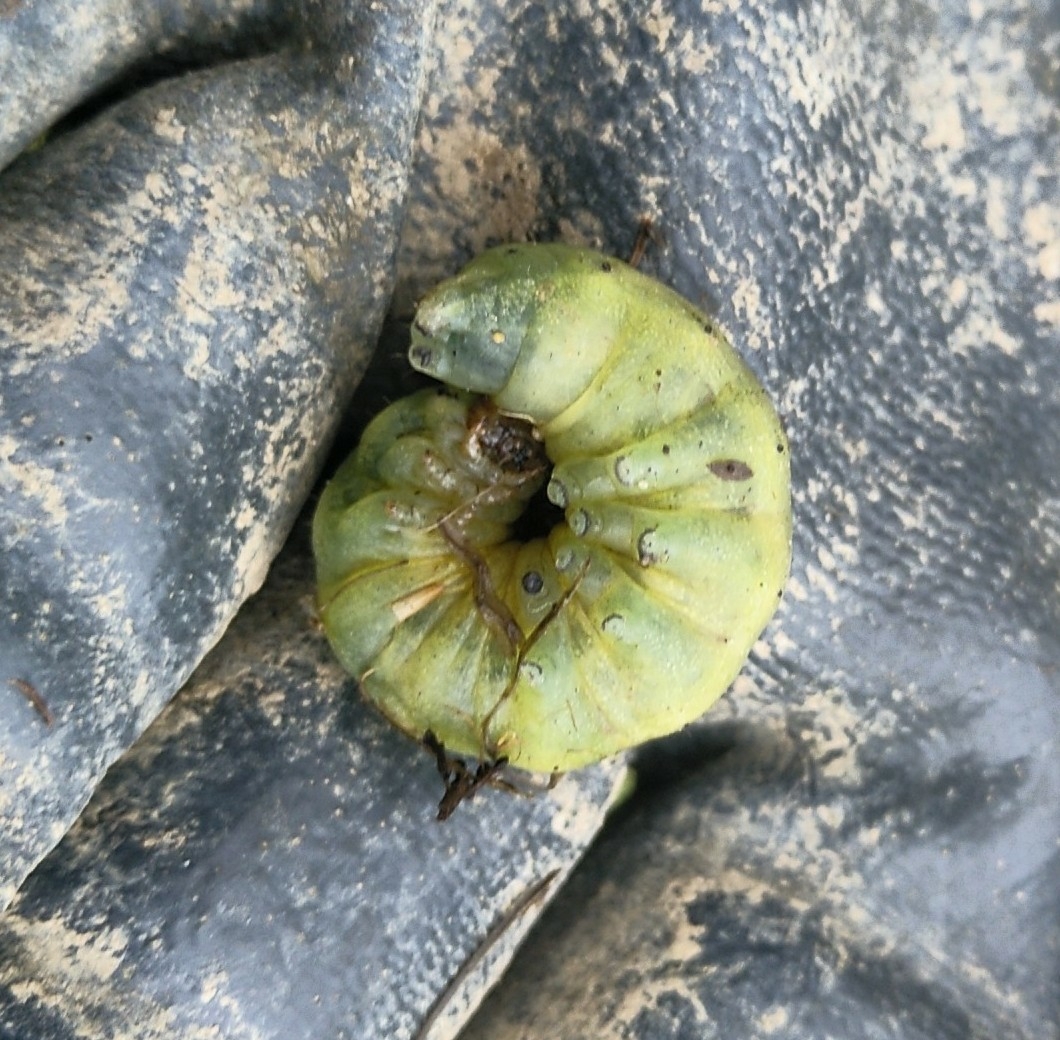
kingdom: Animalia
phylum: Arthropoda
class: Insecta
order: Lepidoptera
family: Noctuidae
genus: Noctua
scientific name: Noctua pronuba
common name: Large yellow underwing
